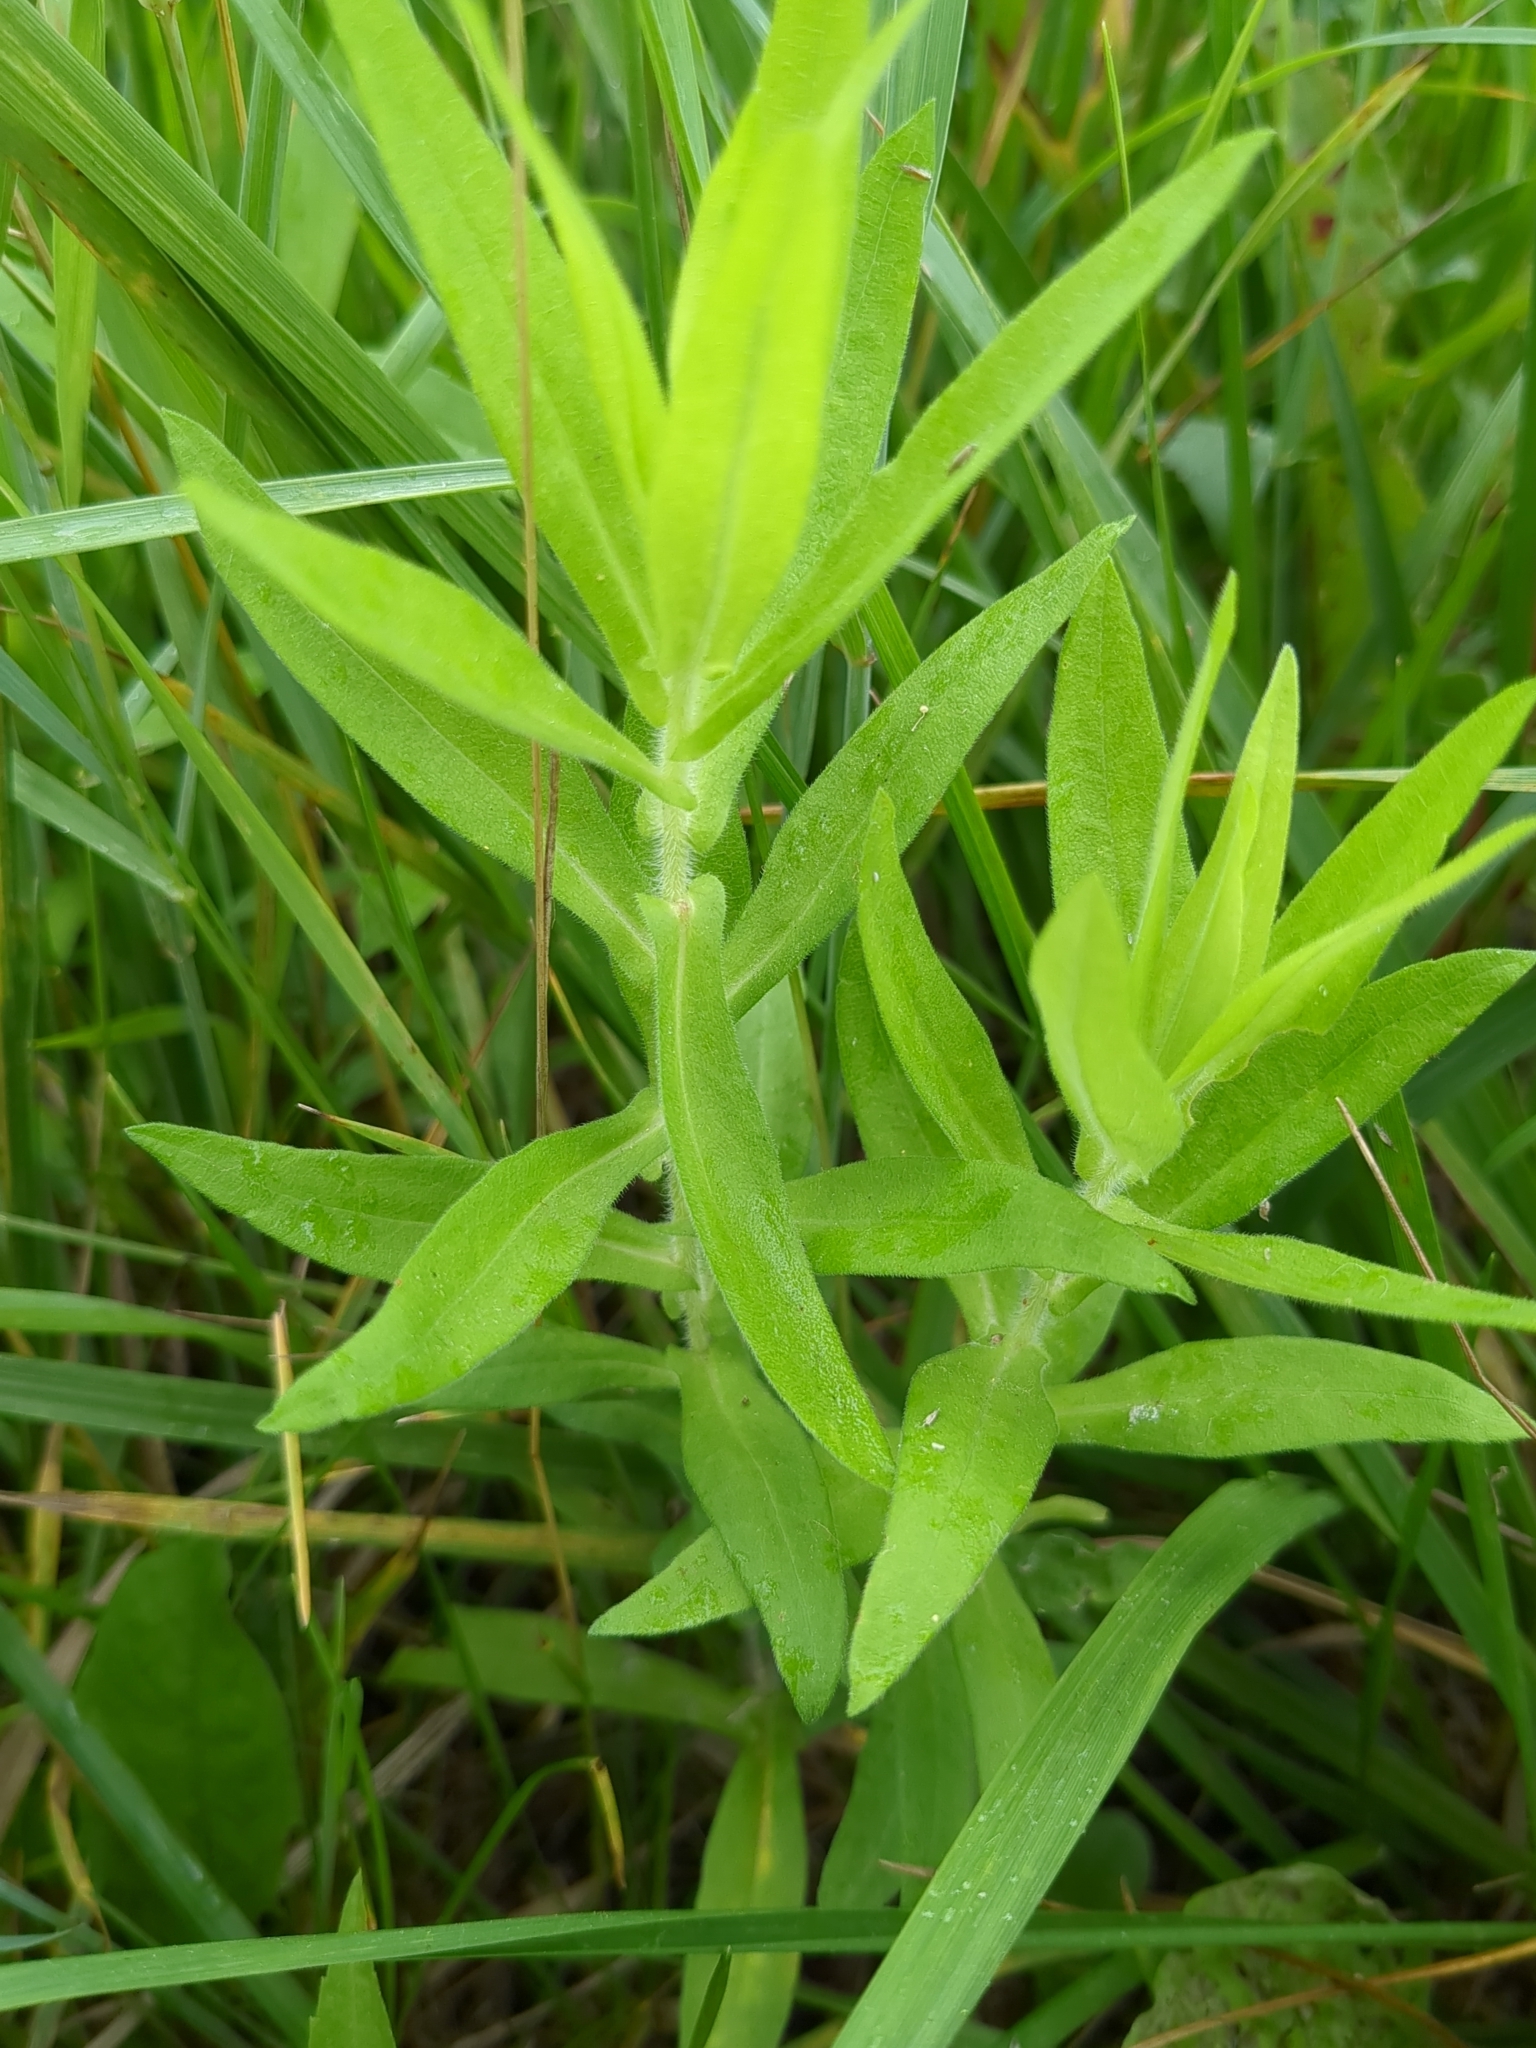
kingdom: Plantae
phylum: Tracheophyta
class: Magnoliopsida
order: Asterales
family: Asteraceae
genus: Symphyotrichum
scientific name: Symphyotrichum novae-angliae
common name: Michaelmas daisy
